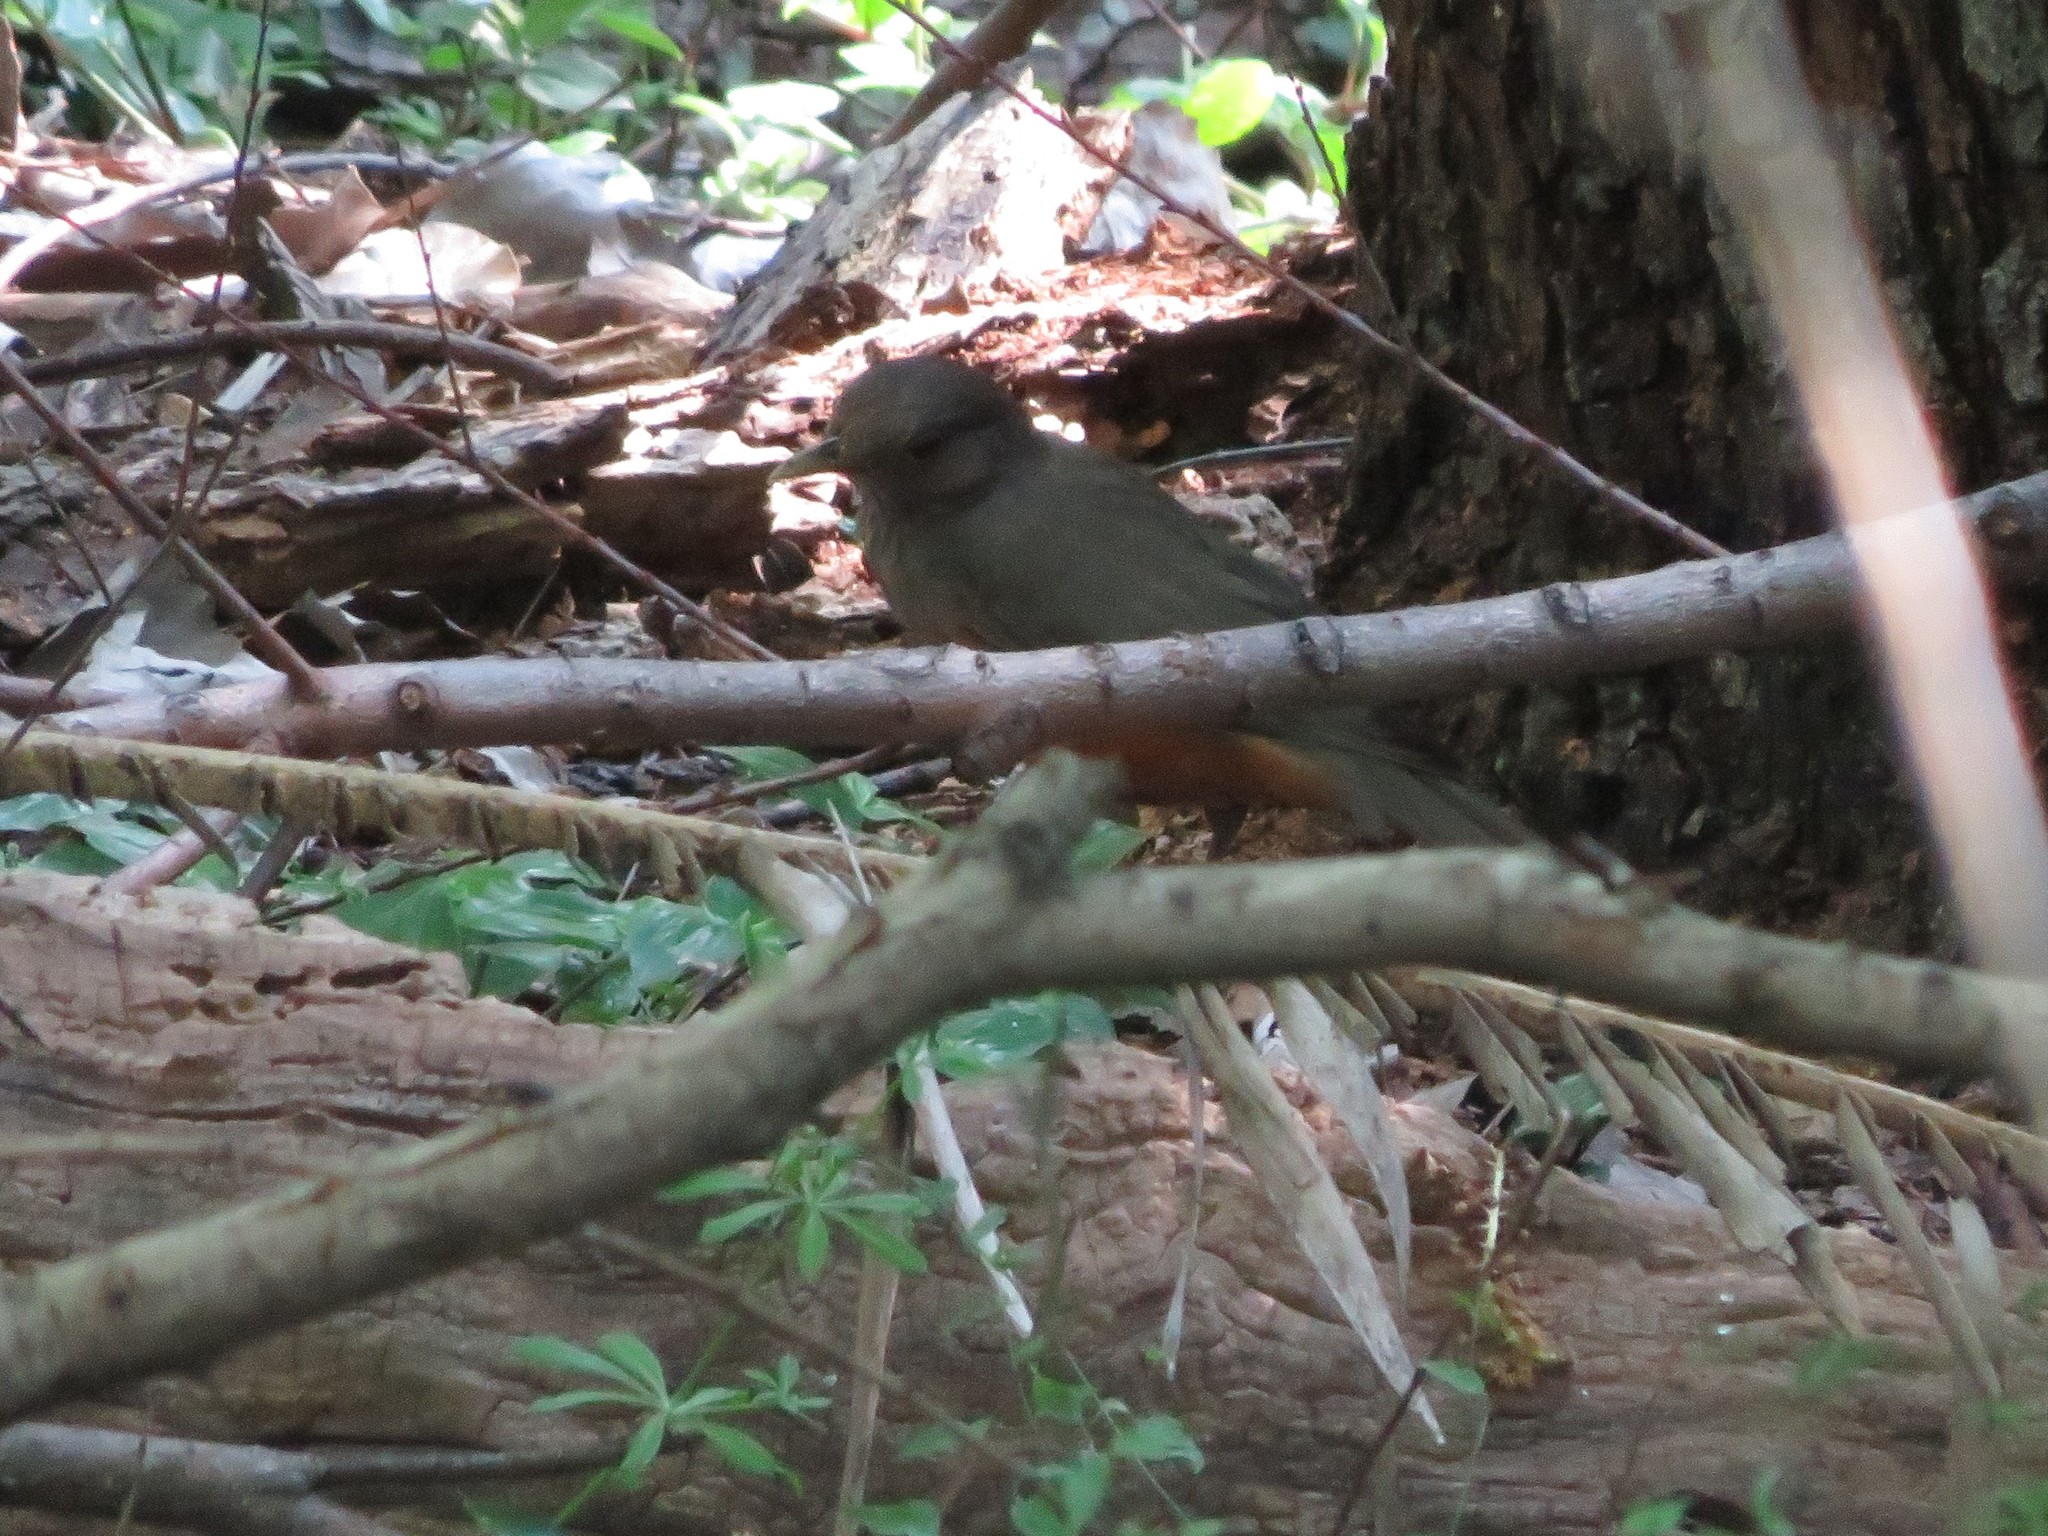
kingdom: Animalia
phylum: Chordata
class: Aves
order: Passeriformes
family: Turdidae
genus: Turdus
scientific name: Turdus rufiventris
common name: Rufous-bellied thrush
